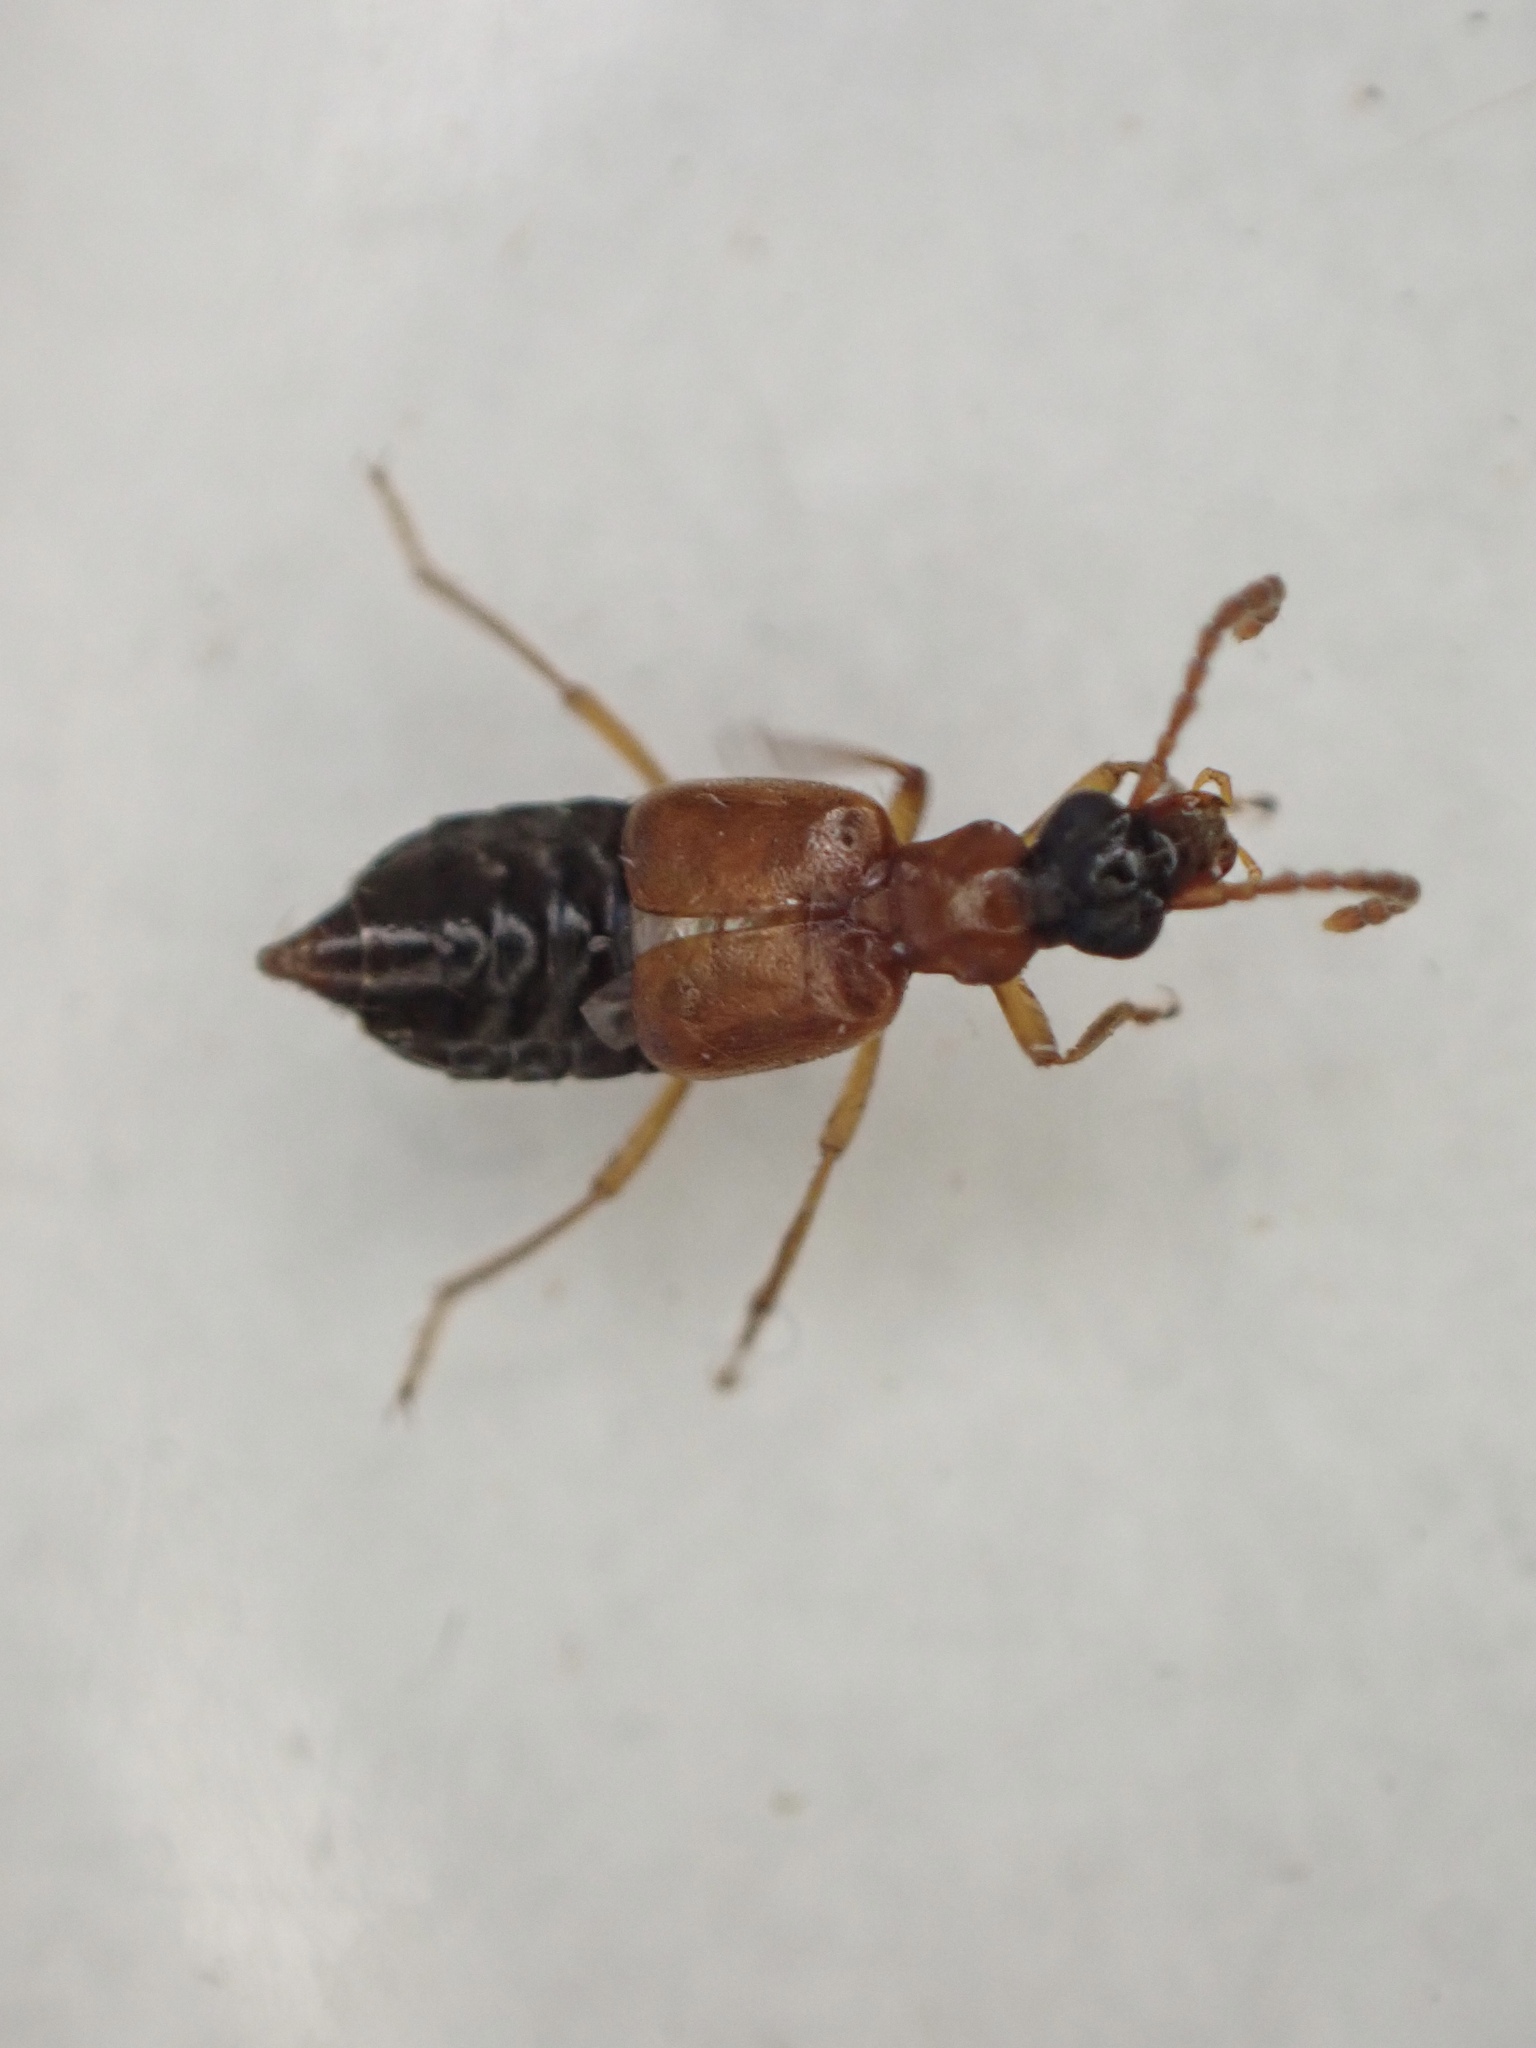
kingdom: Animalia
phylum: Arthropoda
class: Insecta
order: Coleoptera
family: Staphylinidae
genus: Deleaster
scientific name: Deleaster dichrous
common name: Rove beetle
